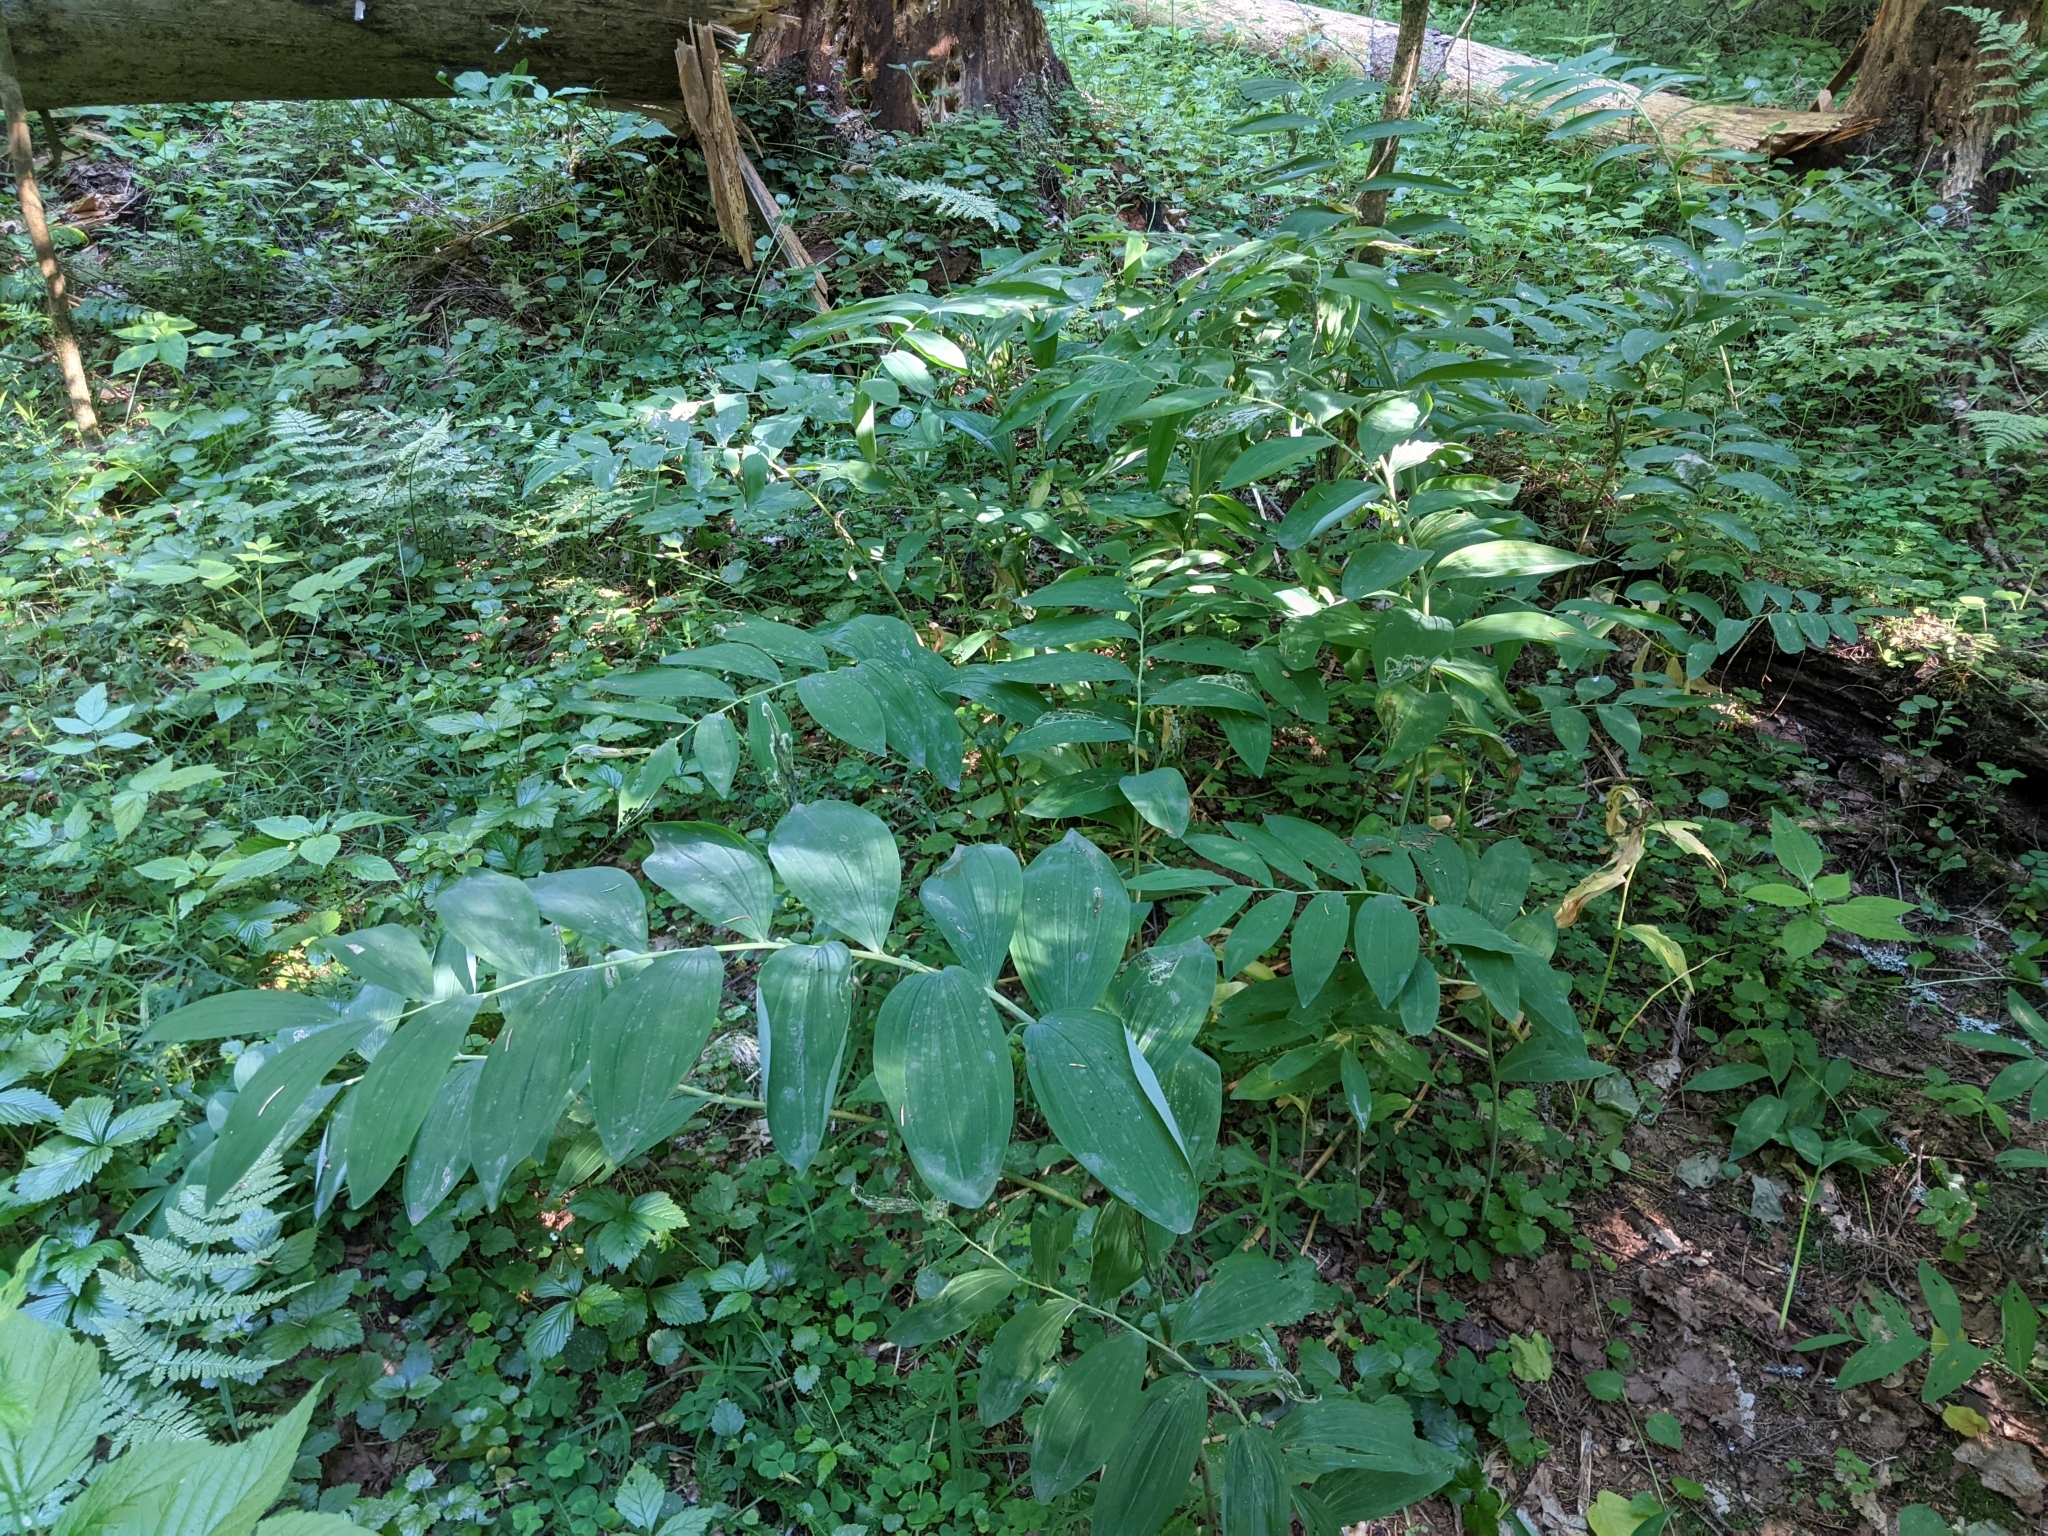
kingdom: Plantae
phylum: Tracheophyta
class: Liliopsida
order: Asparagales
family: Asparagaceae
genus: Polygonatum
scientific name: Polygonatum multiflorum
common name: Solomon's-seal
